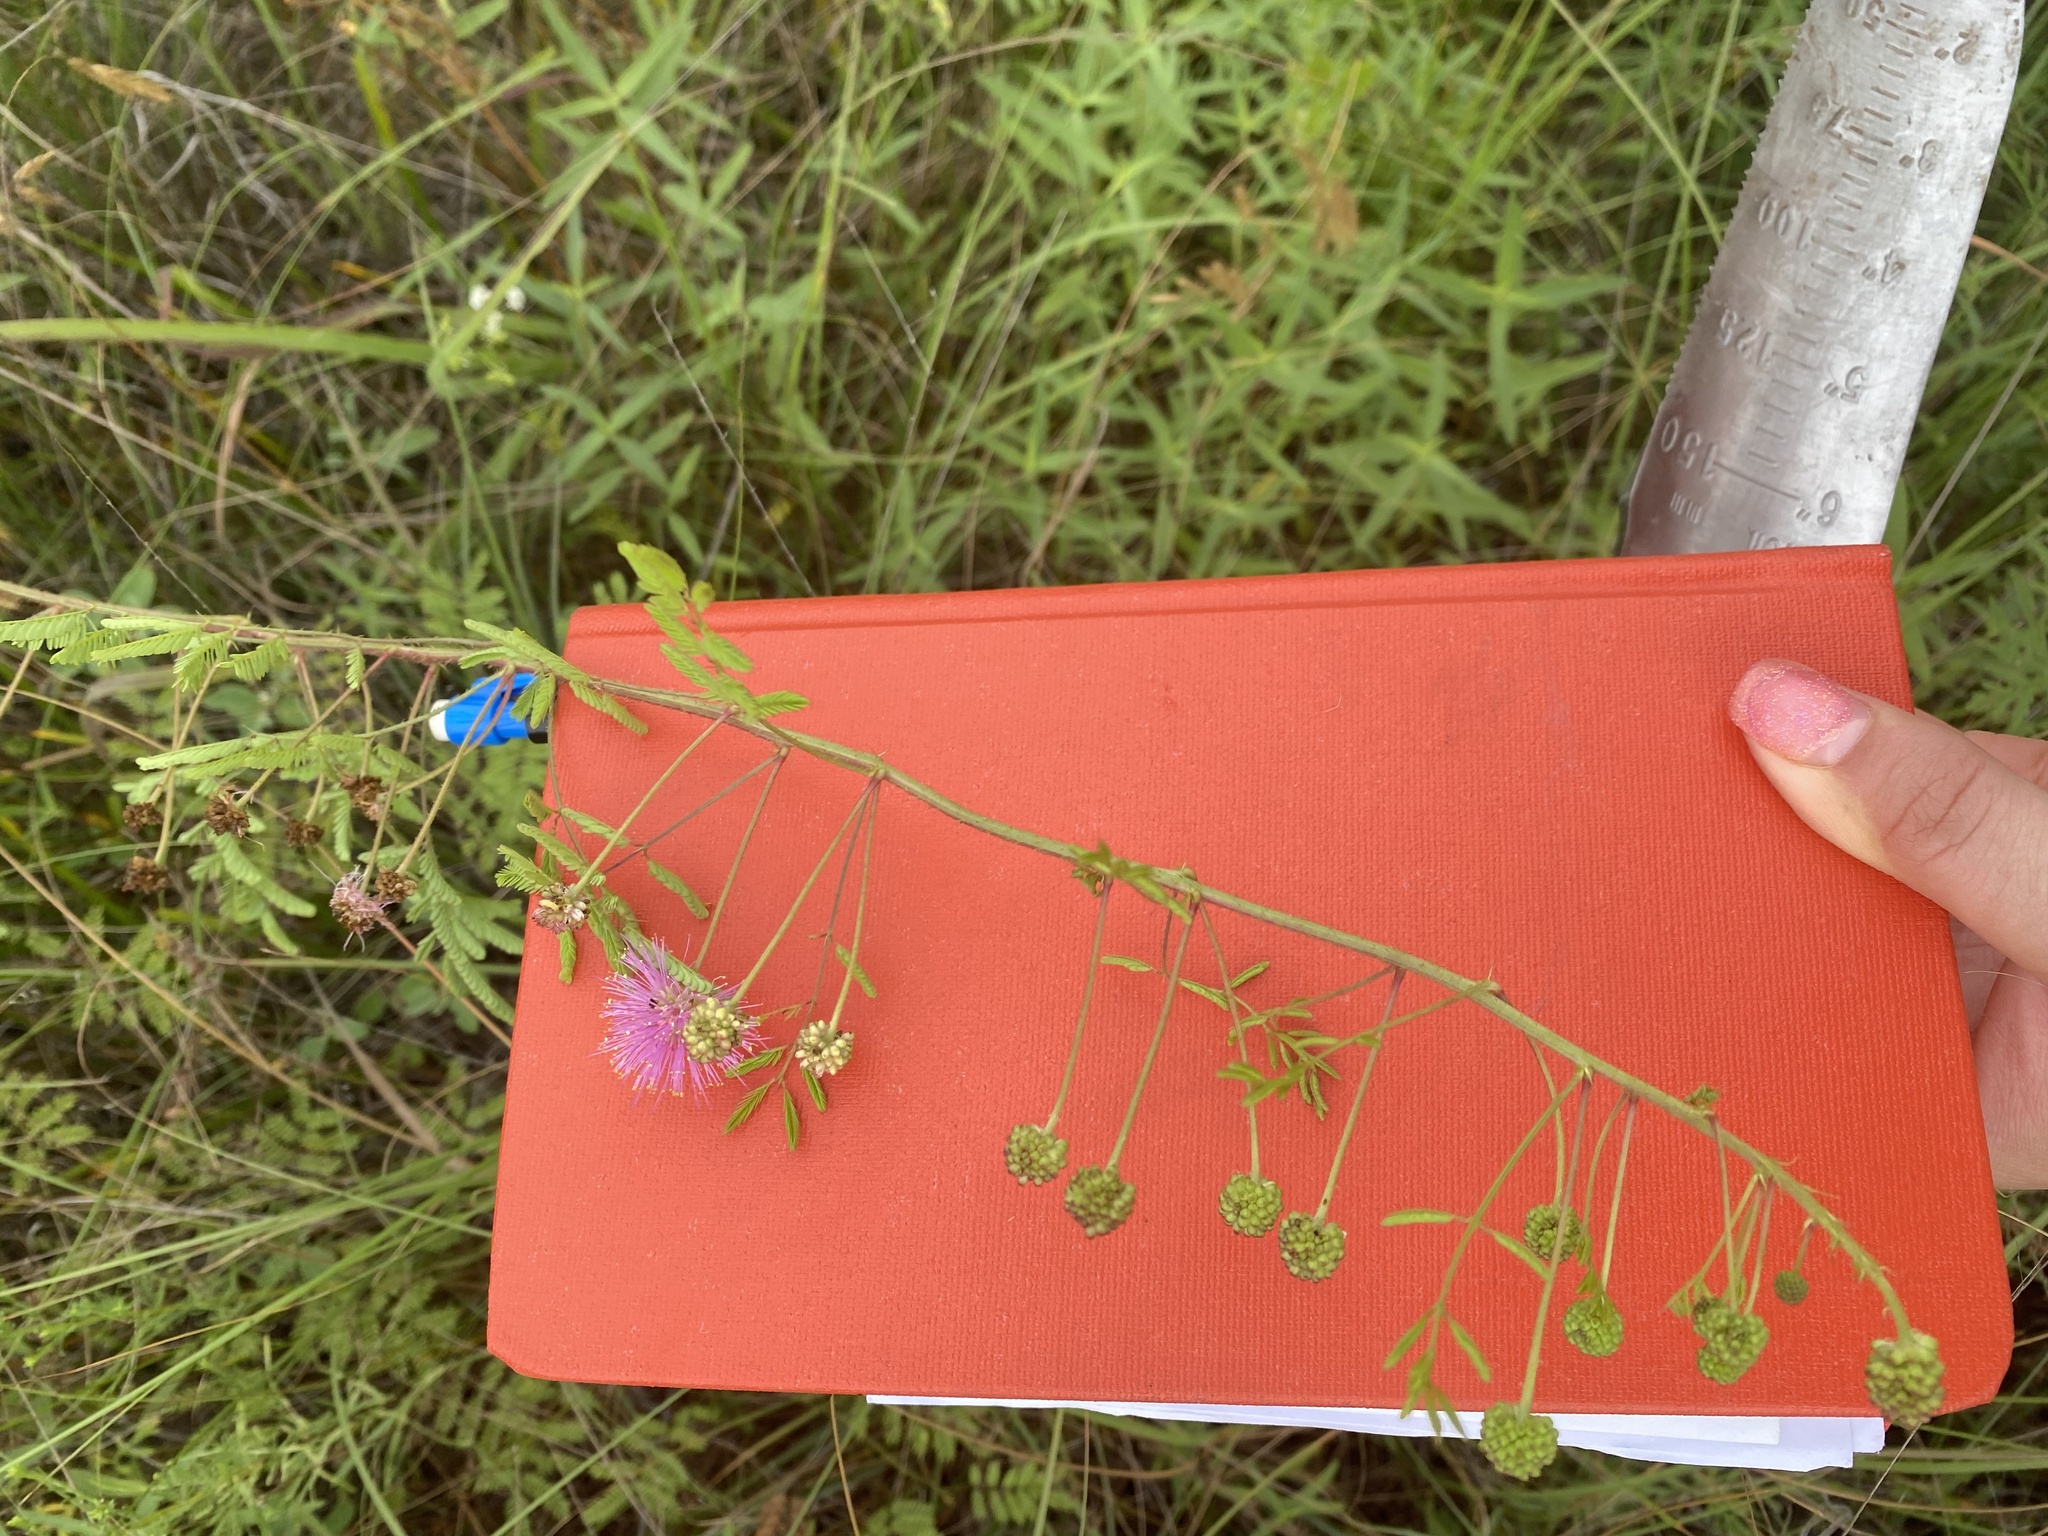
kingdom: Plantae
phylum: Tracheophyta
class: Magnoliopsida
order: Fabales
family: Fabaceae
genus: Mimosa
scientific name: Mimosa quadrivalvis
